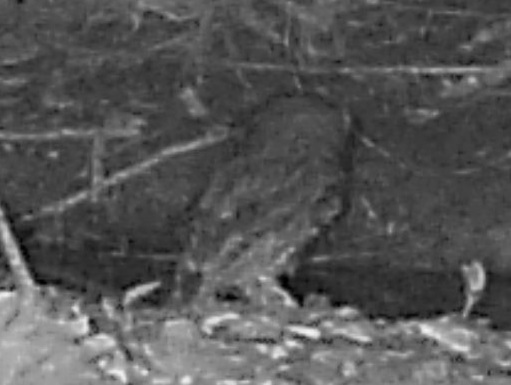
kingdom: Animalia
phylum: Chordata
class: Aves
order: Strigiformes
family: Strigidae
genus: Megascops
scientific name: Megascops asio
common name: Eastern screech-owl
